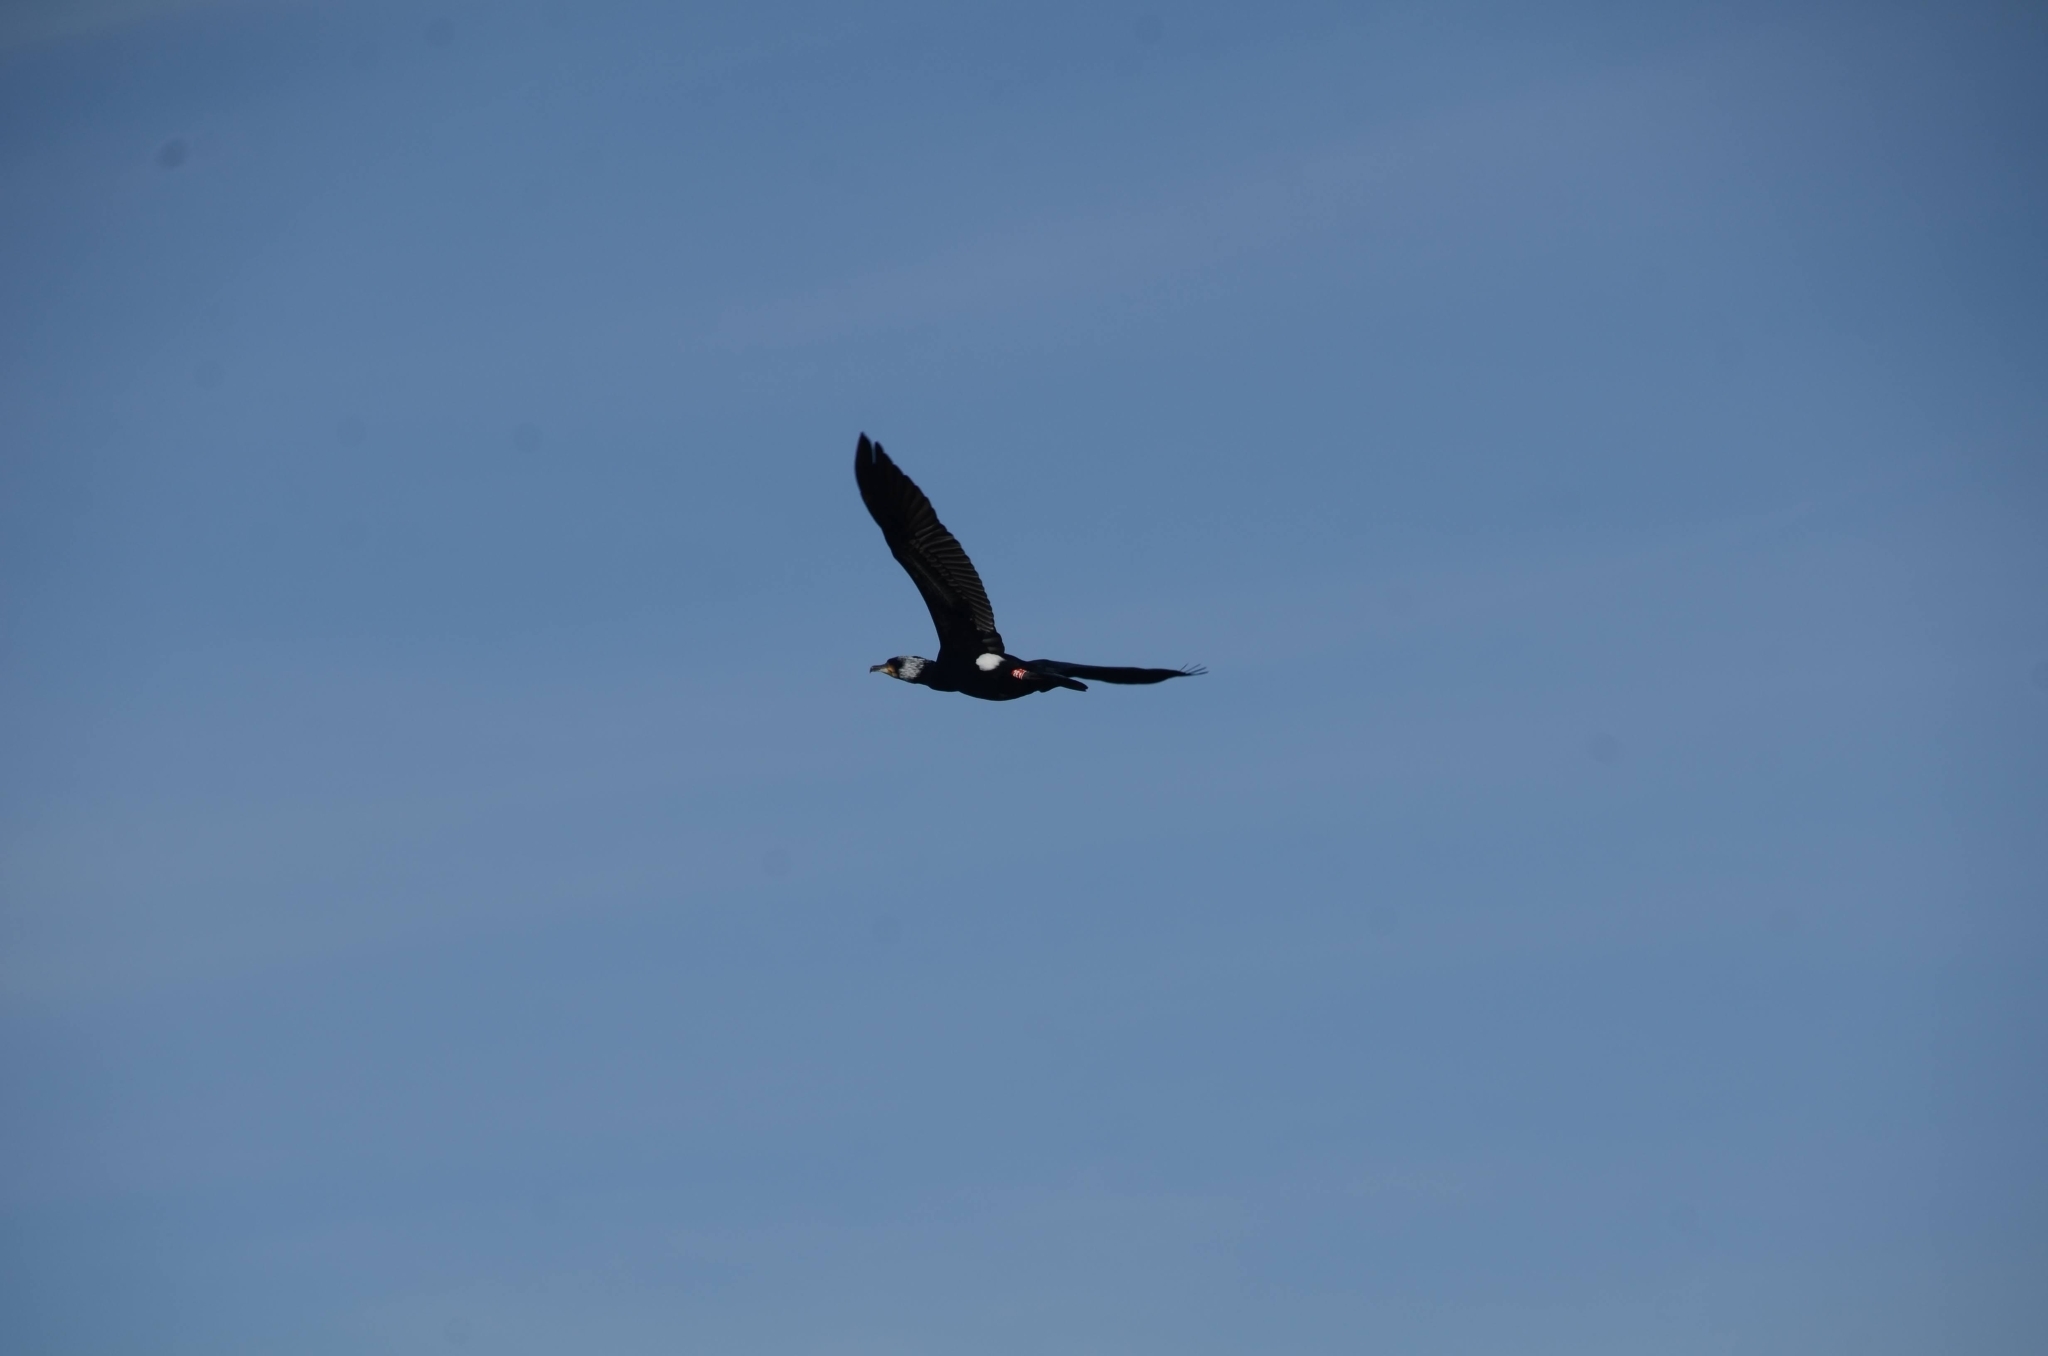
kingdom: Animalia
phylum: Chordata
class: Aves
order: Suliformes
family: Phalacrocoracidae
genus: Phalacrocorax
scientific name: Phalacrocorax carbo
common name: Great cormorant
